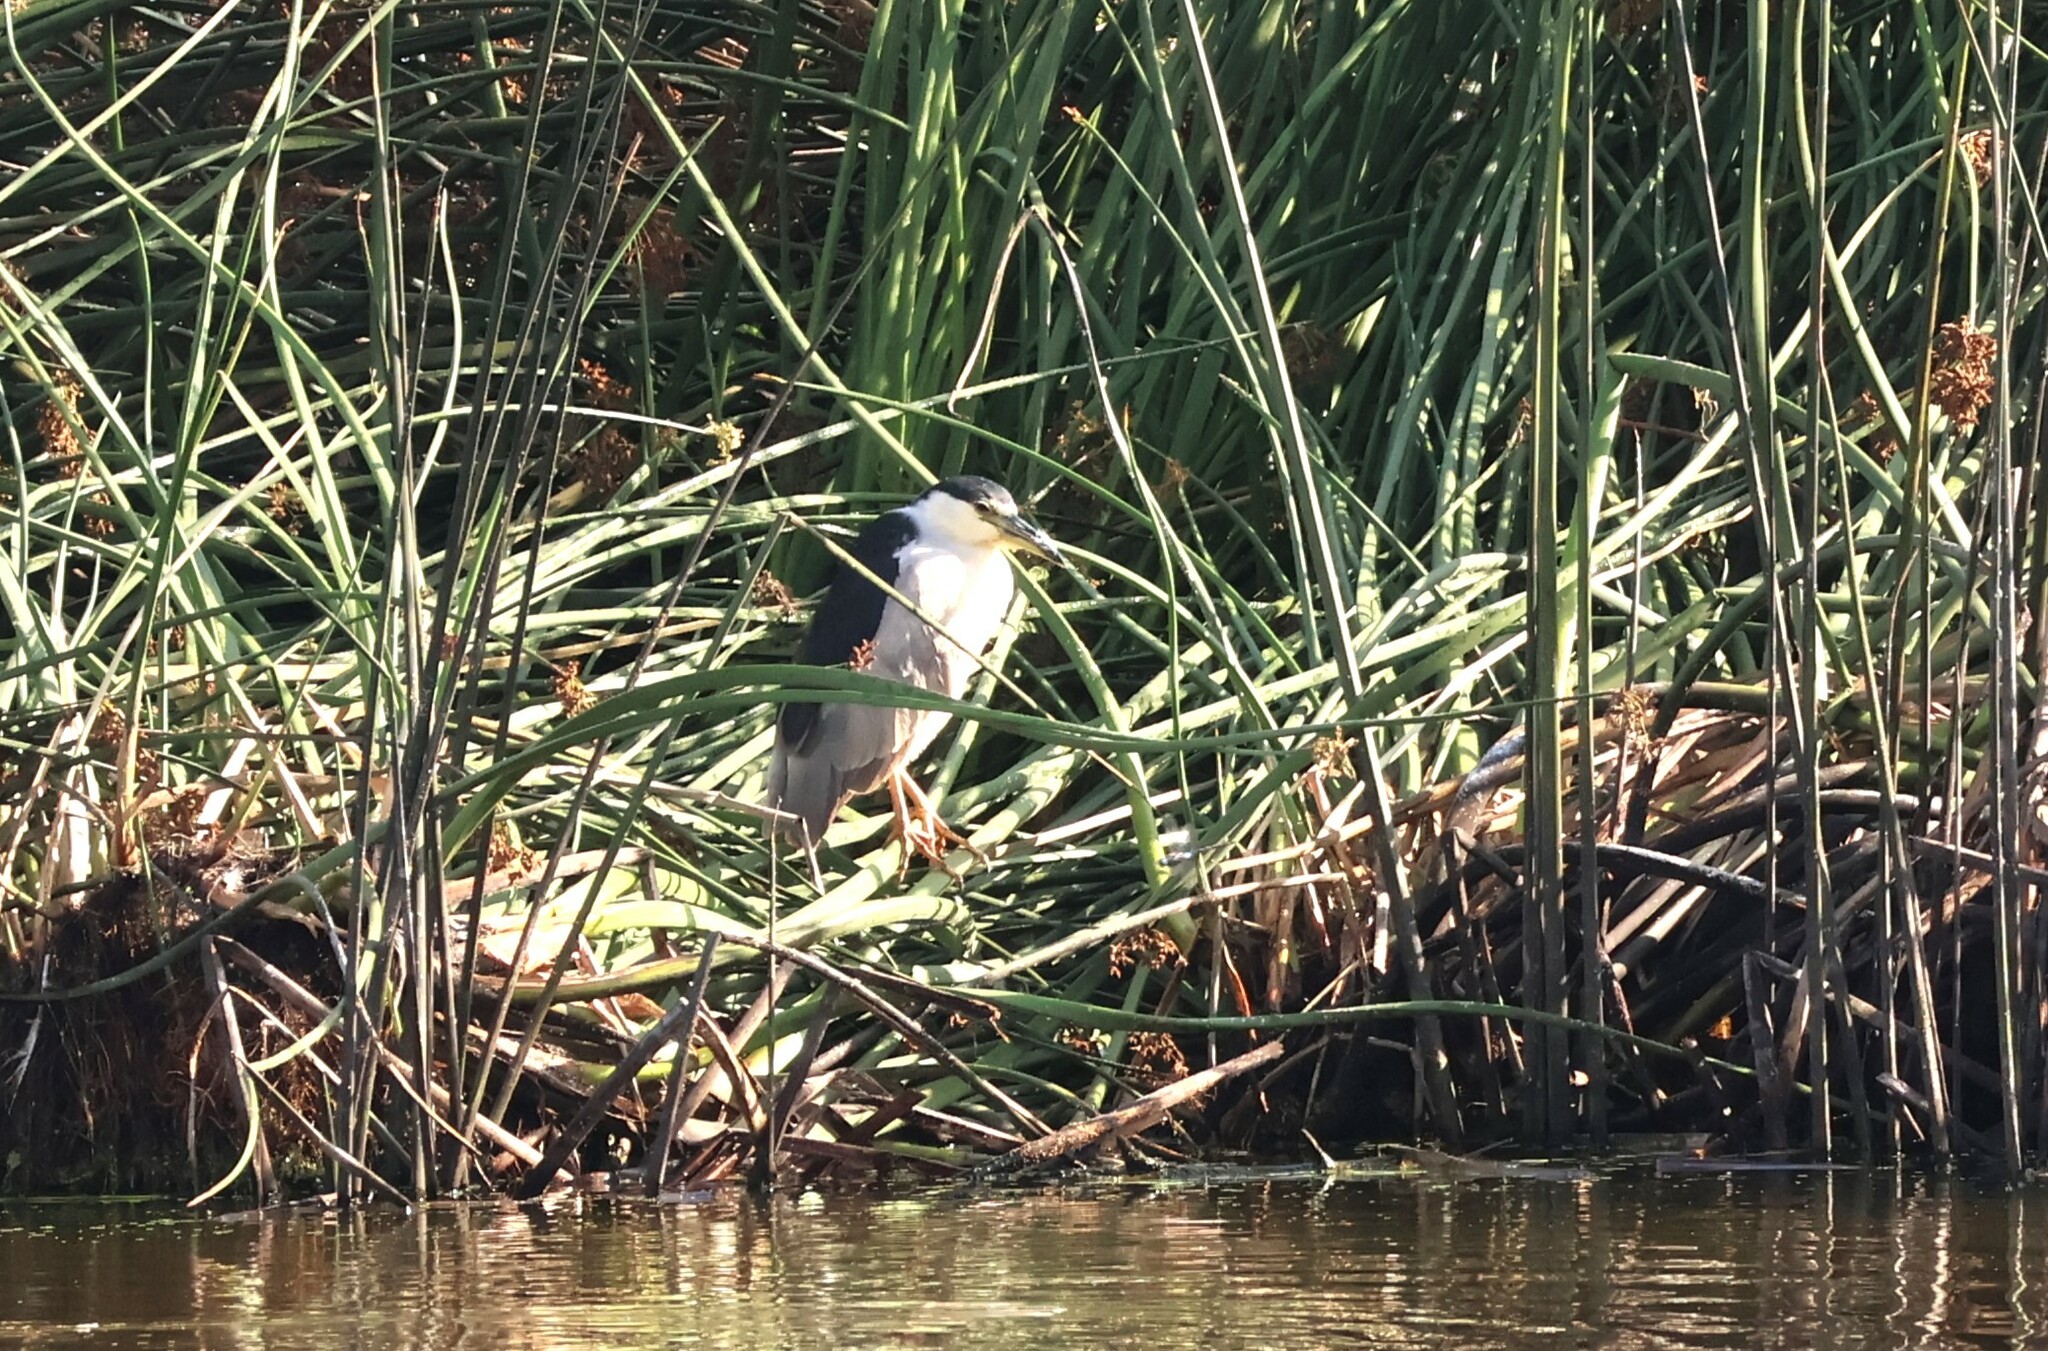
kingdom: Animalia
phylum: Chordata
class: Aves
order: Pelecaniformes
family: Ardeidae
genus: Nycticorax
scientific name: Nycticorax nycticorax
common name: Black-crowned night heron
